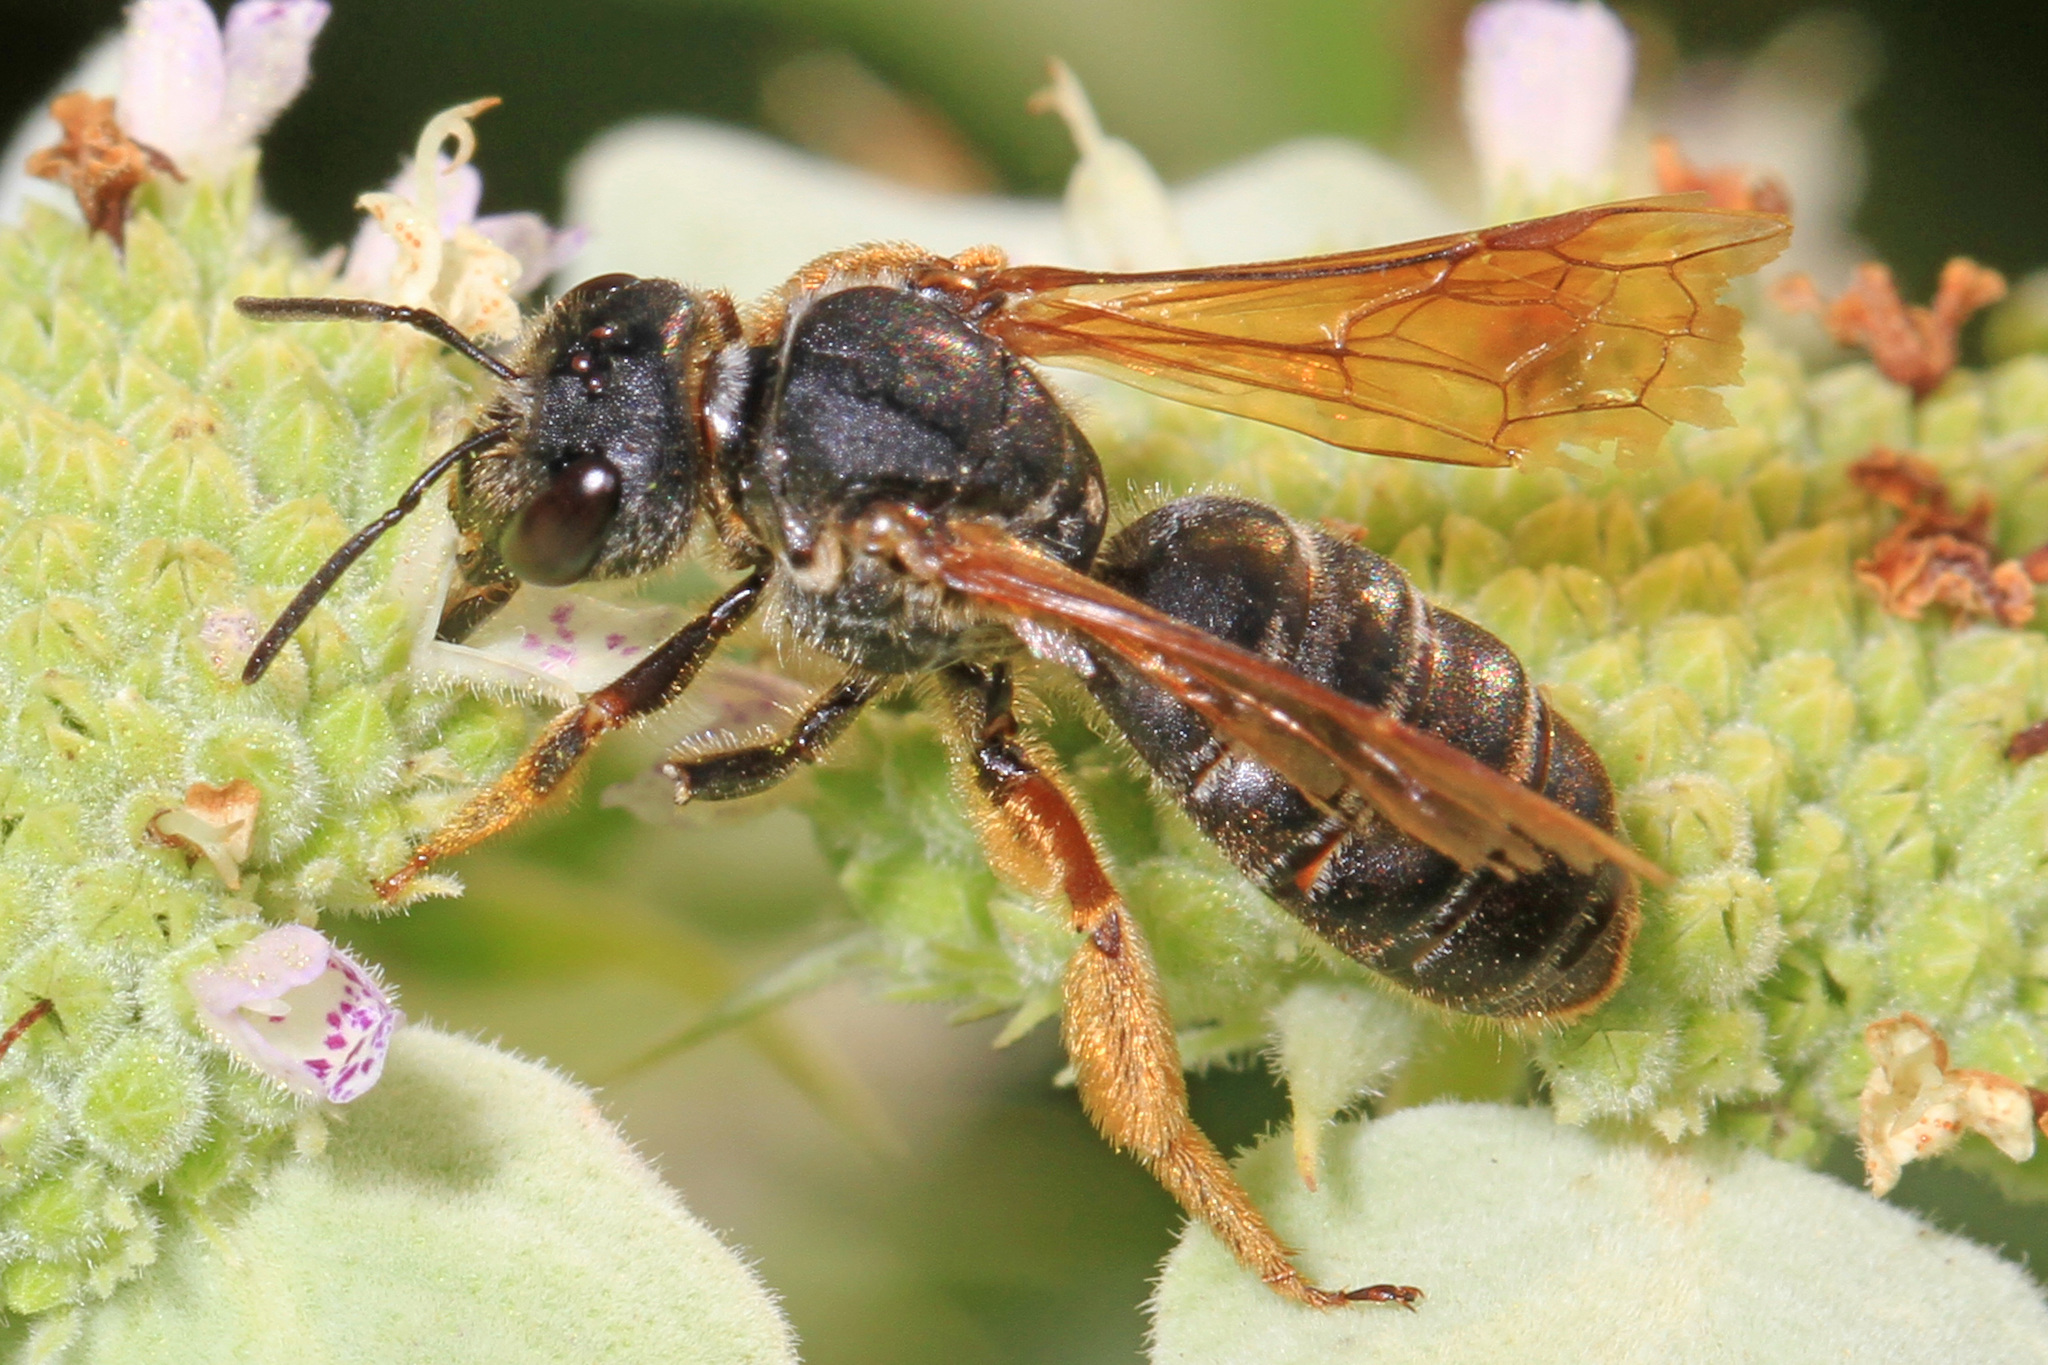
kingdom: Animalia
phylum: Arthropoda
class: Insecta
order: Hymenoptera
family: Halictidae
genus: Halictus
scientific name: Halictus parallelus
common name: Parallel-striped sweat bee
